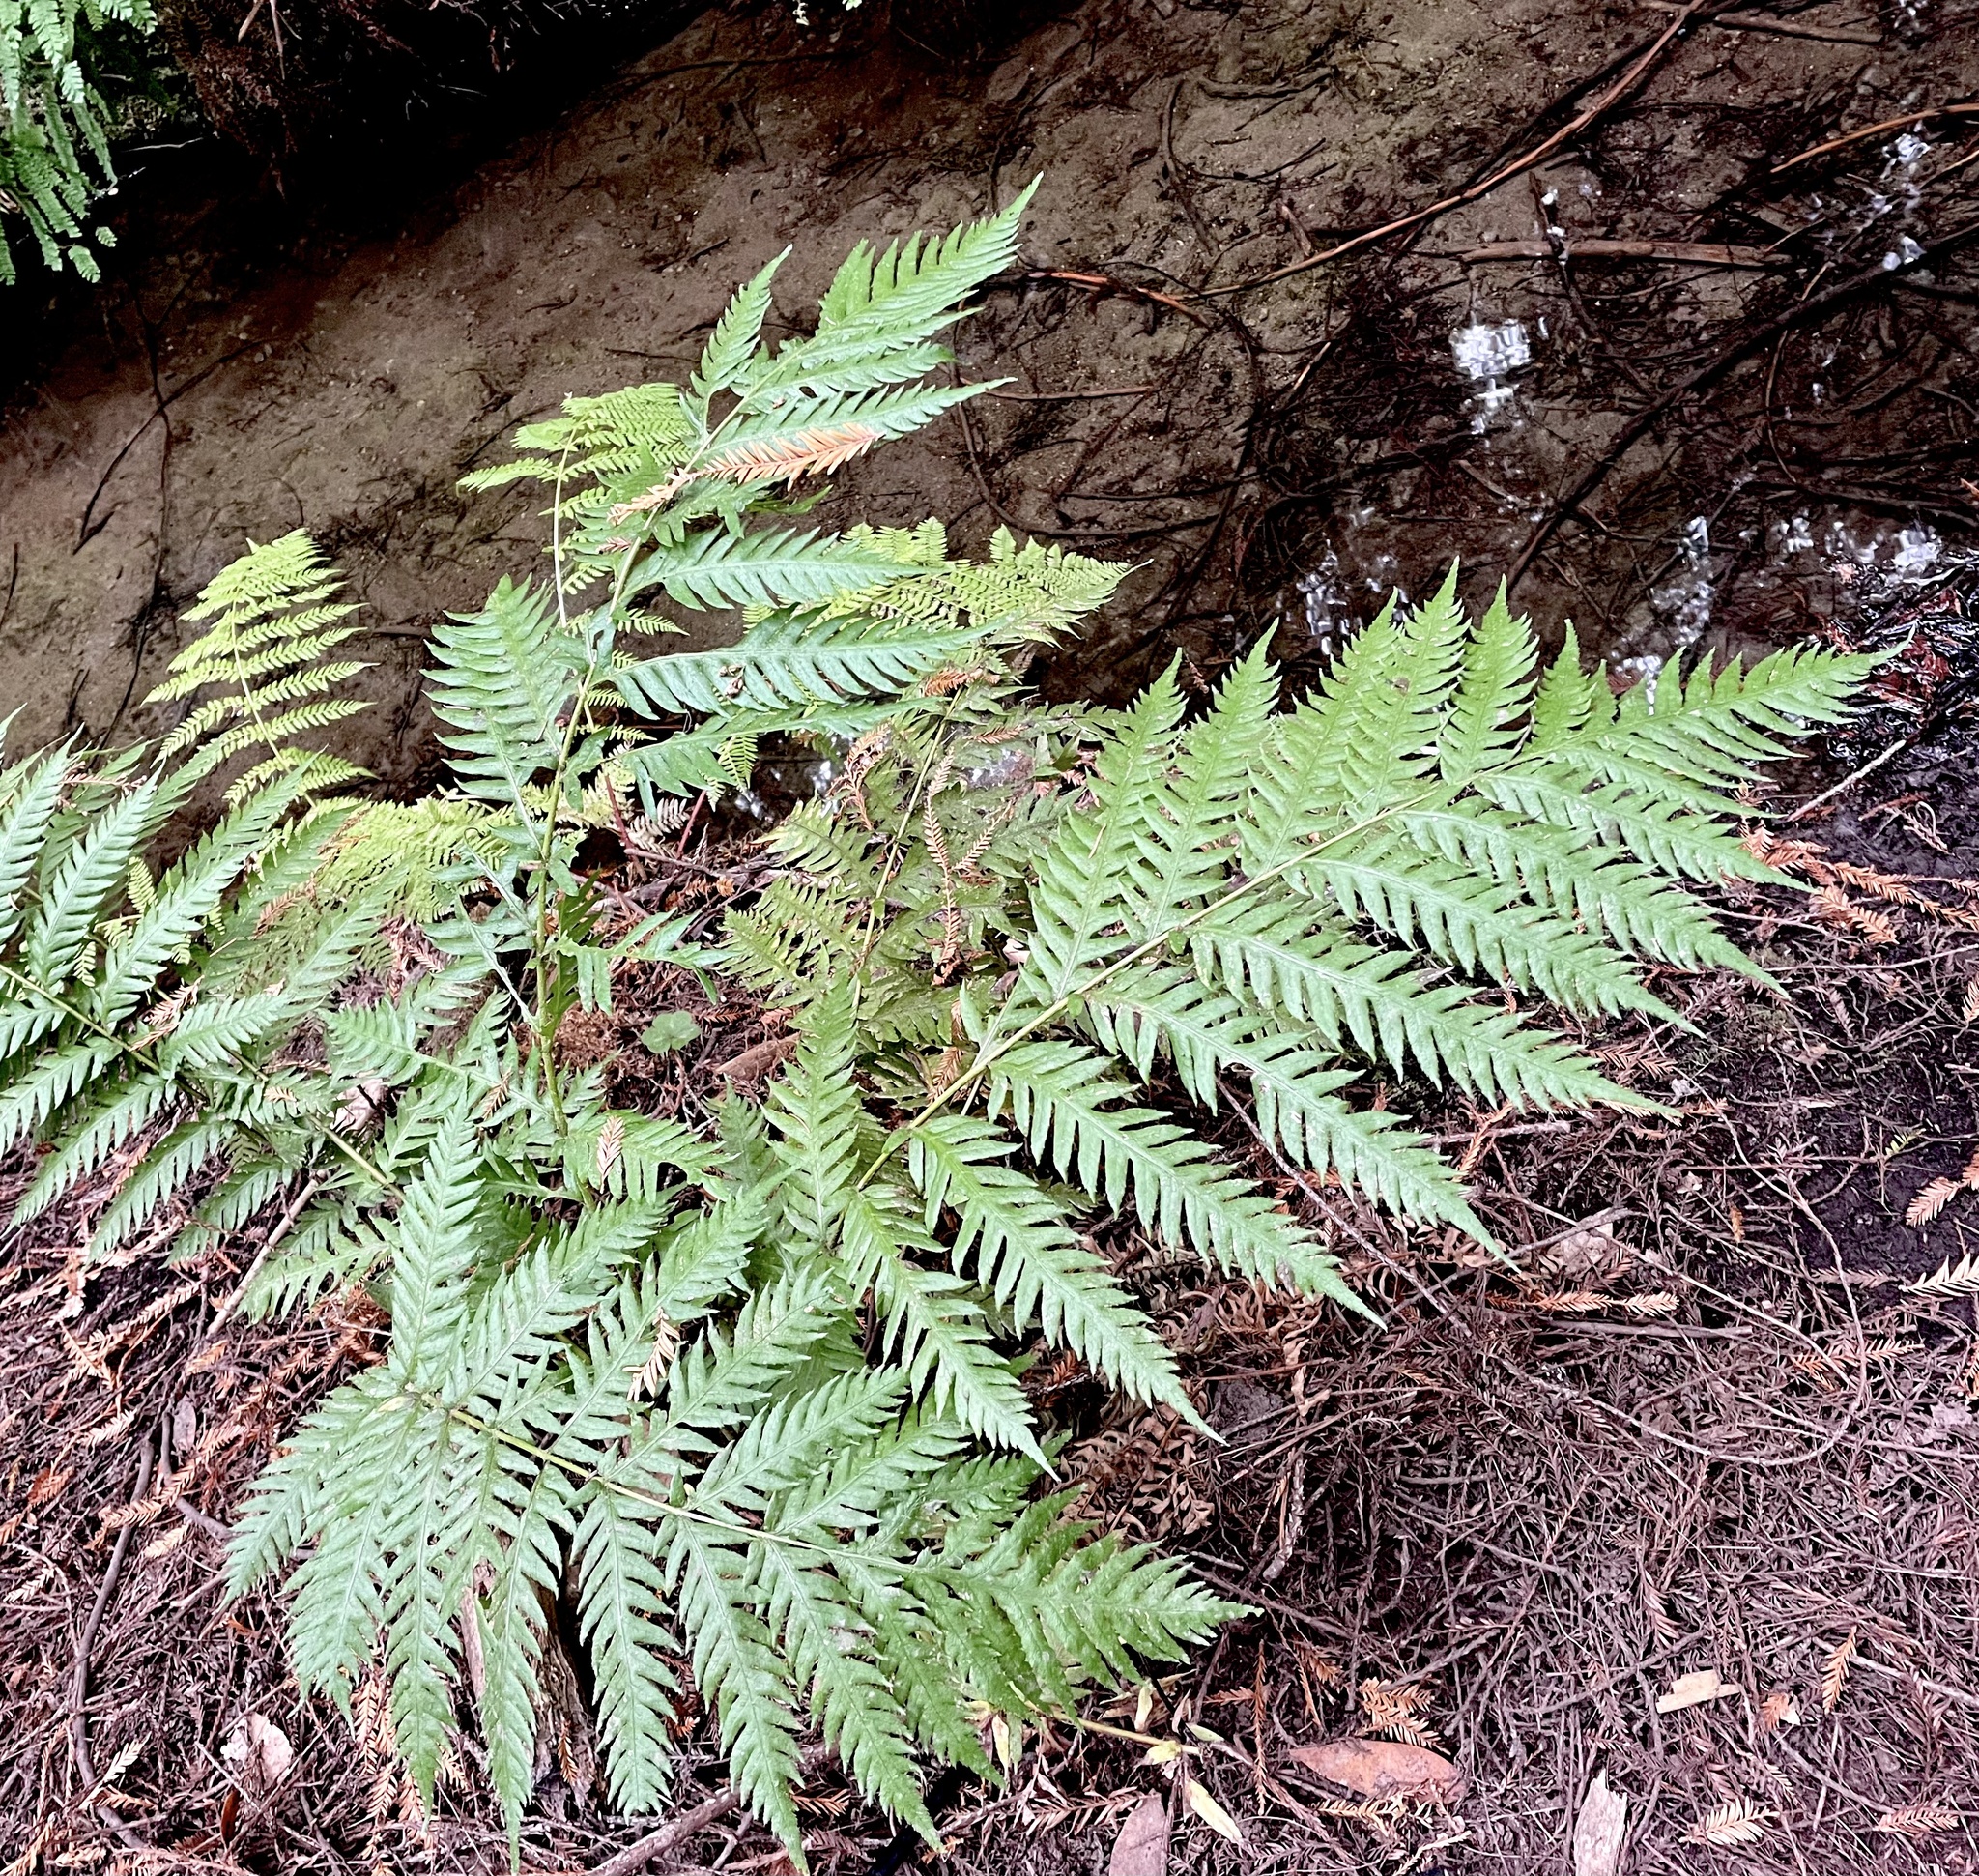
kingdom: Plantae
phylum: Tracheophyta
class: Polypodiopsida
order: Polypodiales
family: Blechnaceae
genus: Woodwardia
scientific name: Woodwardia fimbriata
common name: Giant chain fern
